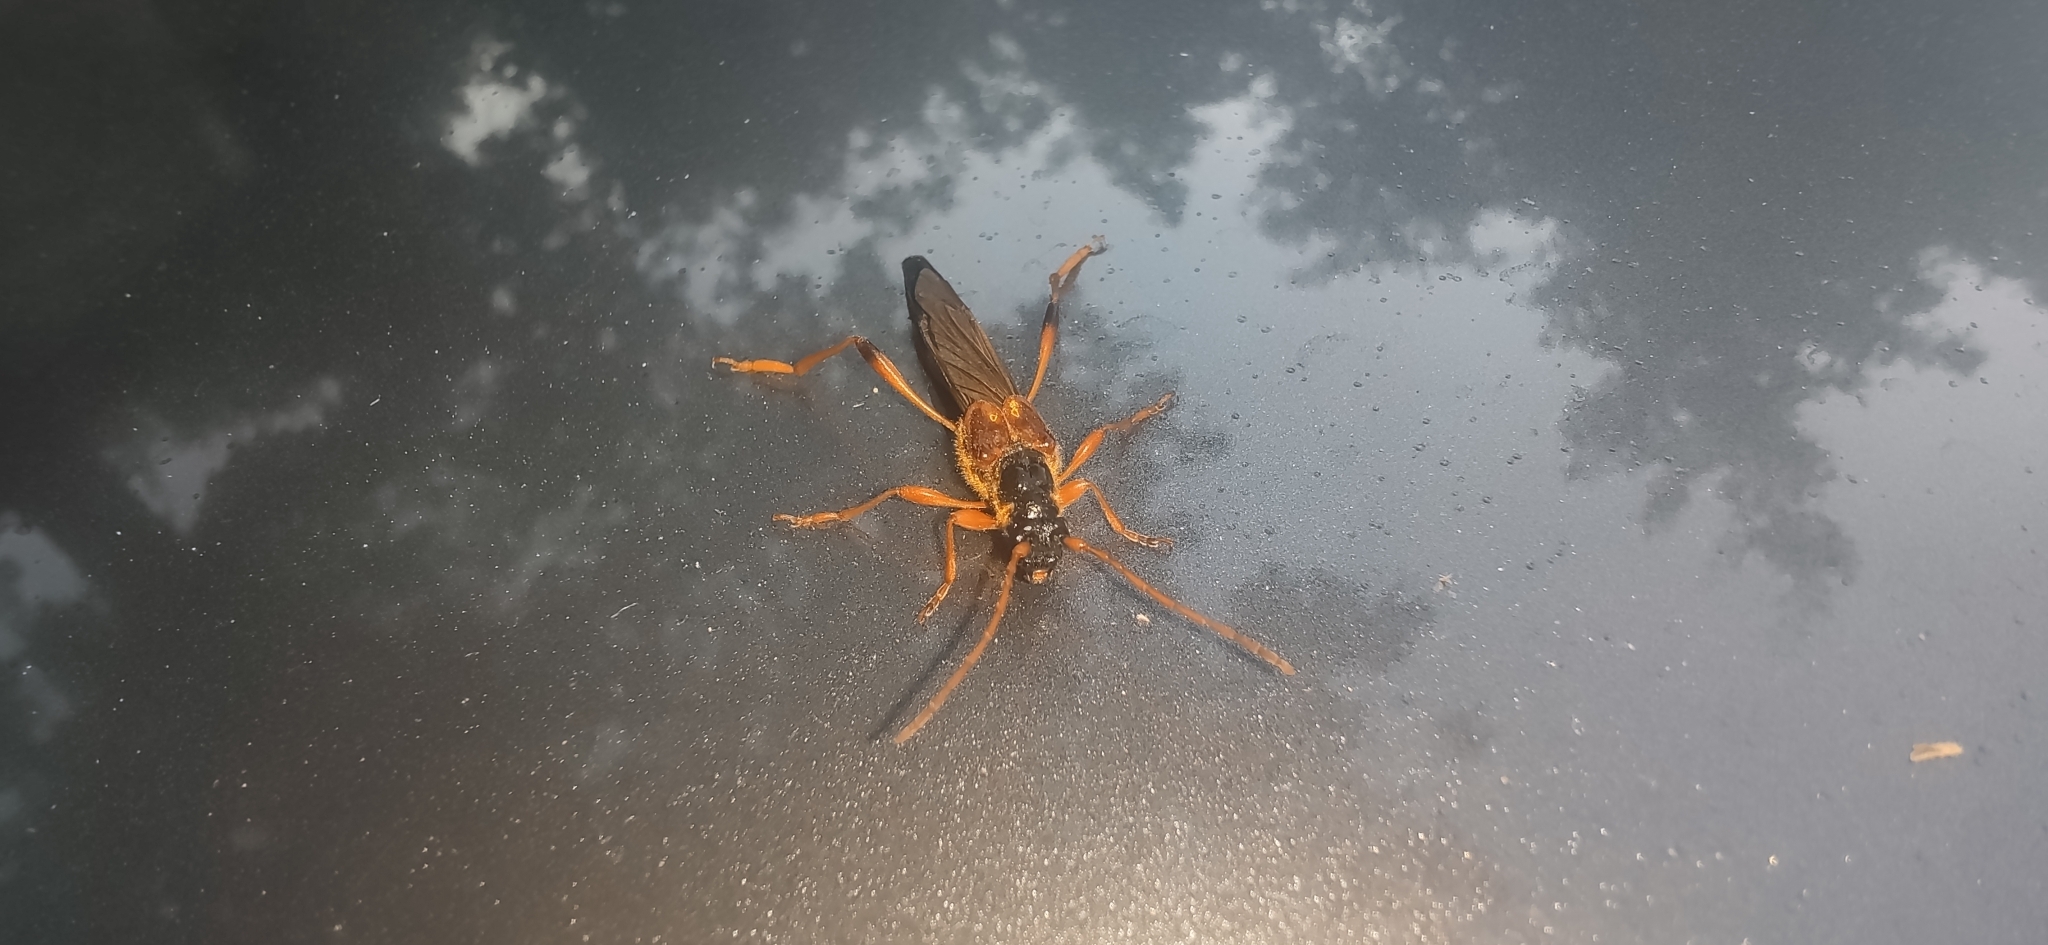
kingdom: Animalia
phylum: Arthropoda
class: Insecta
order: Coleoptera
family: Cerambycidae
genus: Necydalis
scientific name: Necydalis major
